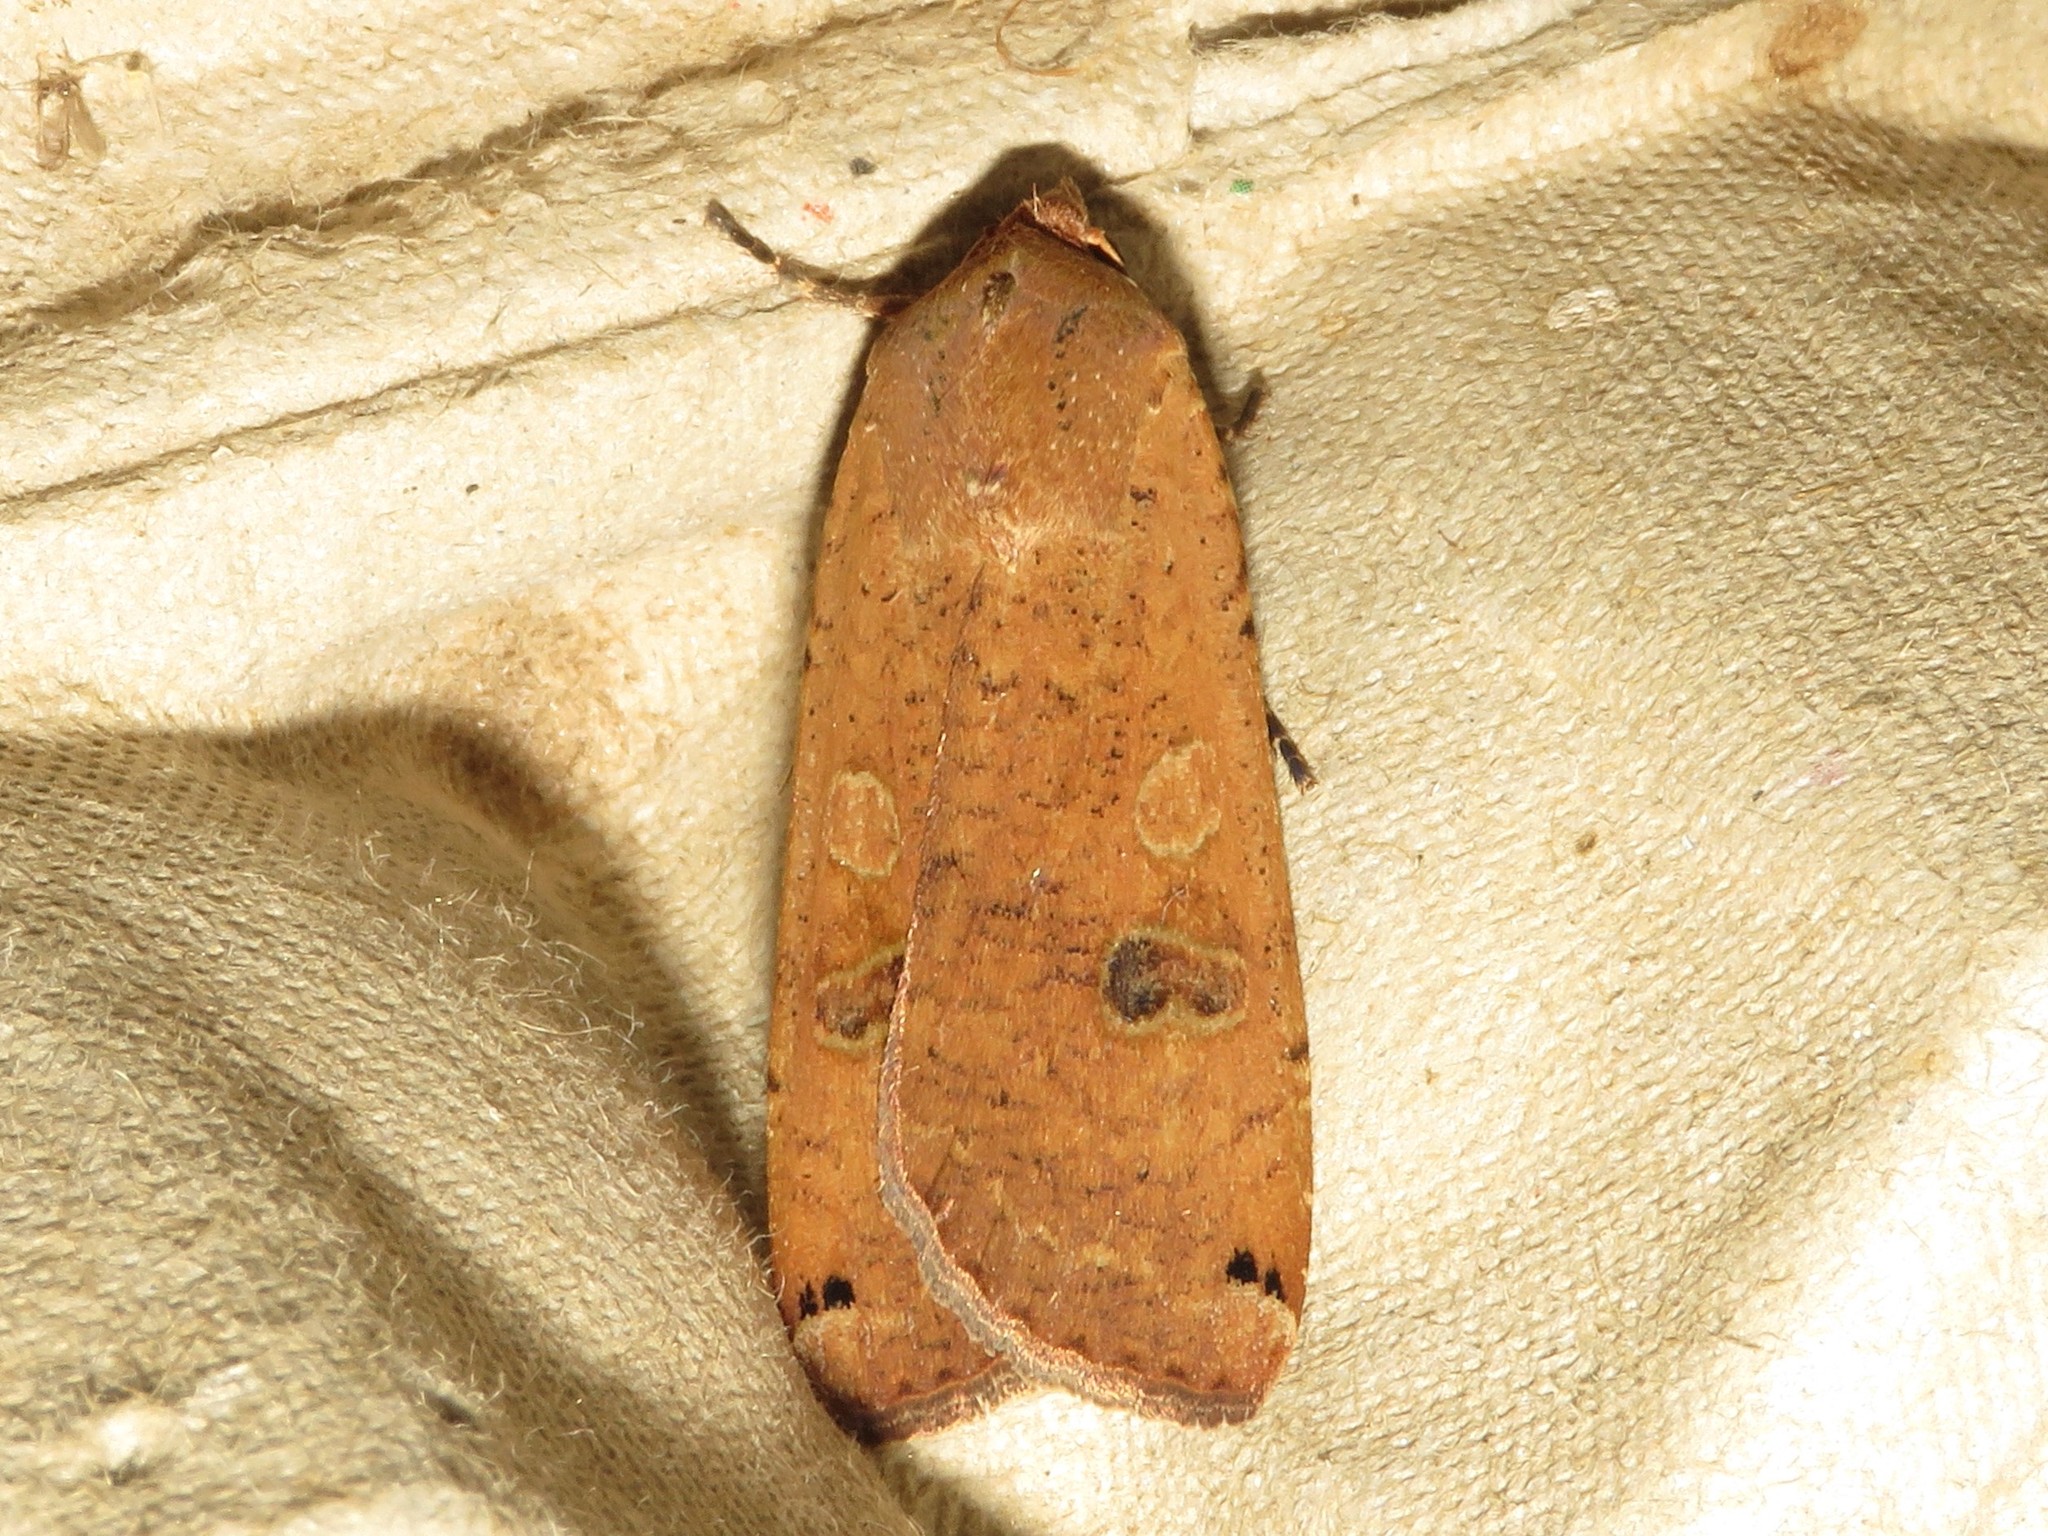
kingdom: Animalia
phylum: Arthropoda
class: Insecta
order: Lepidoptera
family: Noctuidae
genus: Noctua
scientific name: Noctua pronuba
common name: Large yellow underwing
